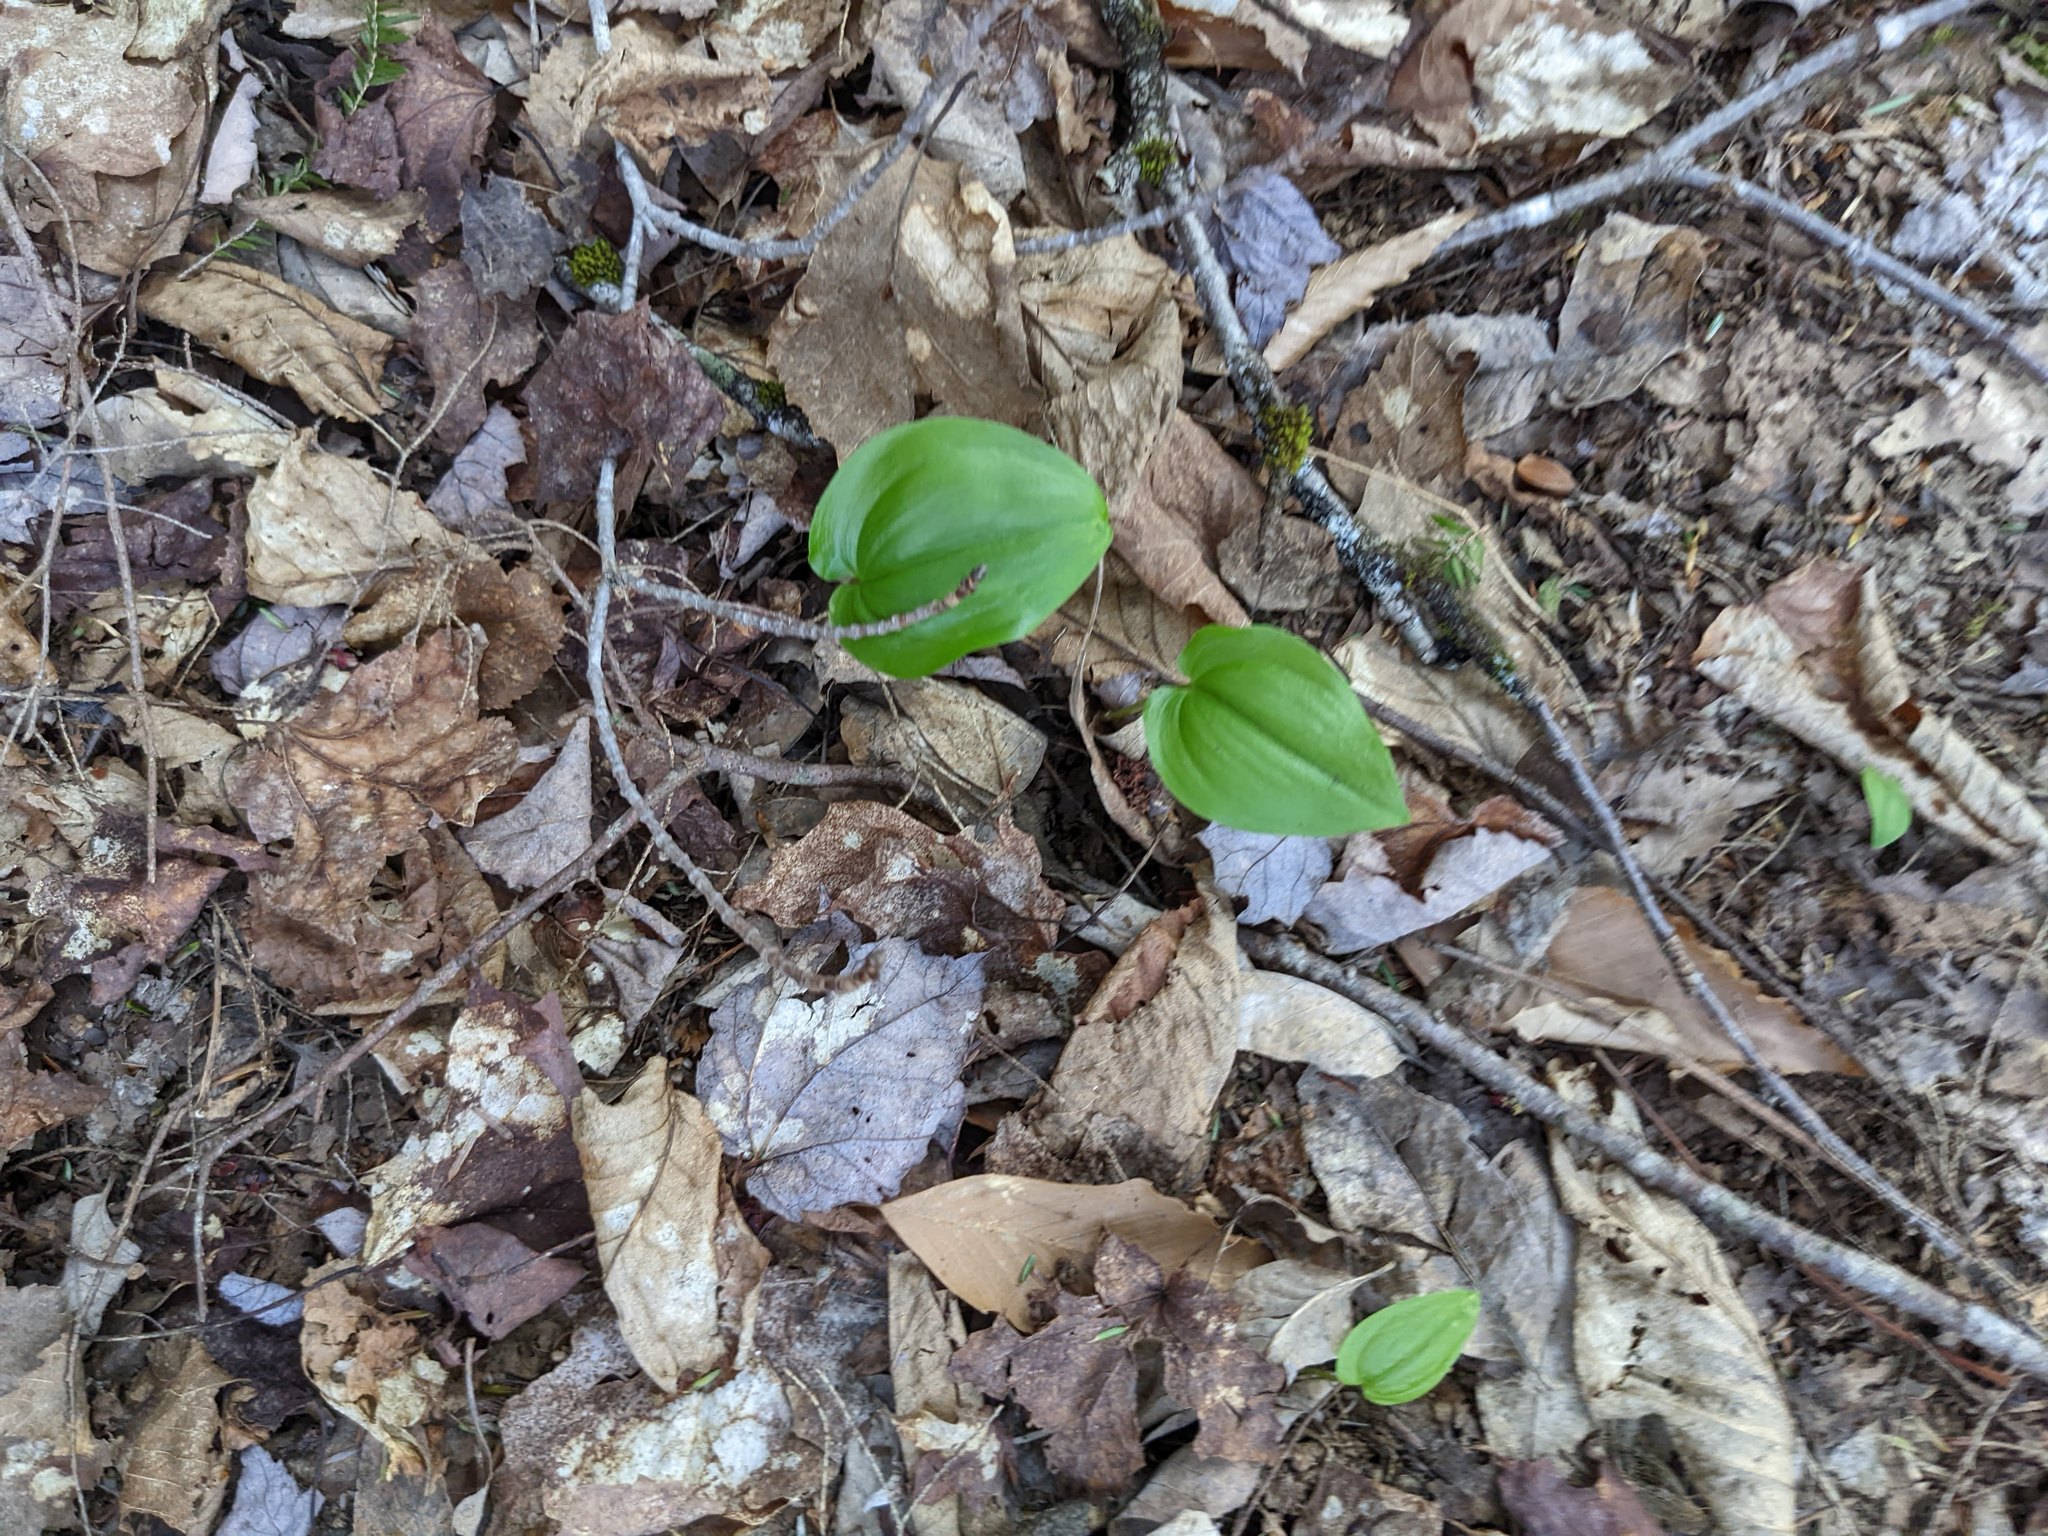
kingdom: Plantae
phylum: Tracheophyta
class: Liliopsida
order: Asparagales
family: Asparagaceae
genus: Maianthemum
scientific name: Maianthemum canadense
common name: False lily-of-the-valley
